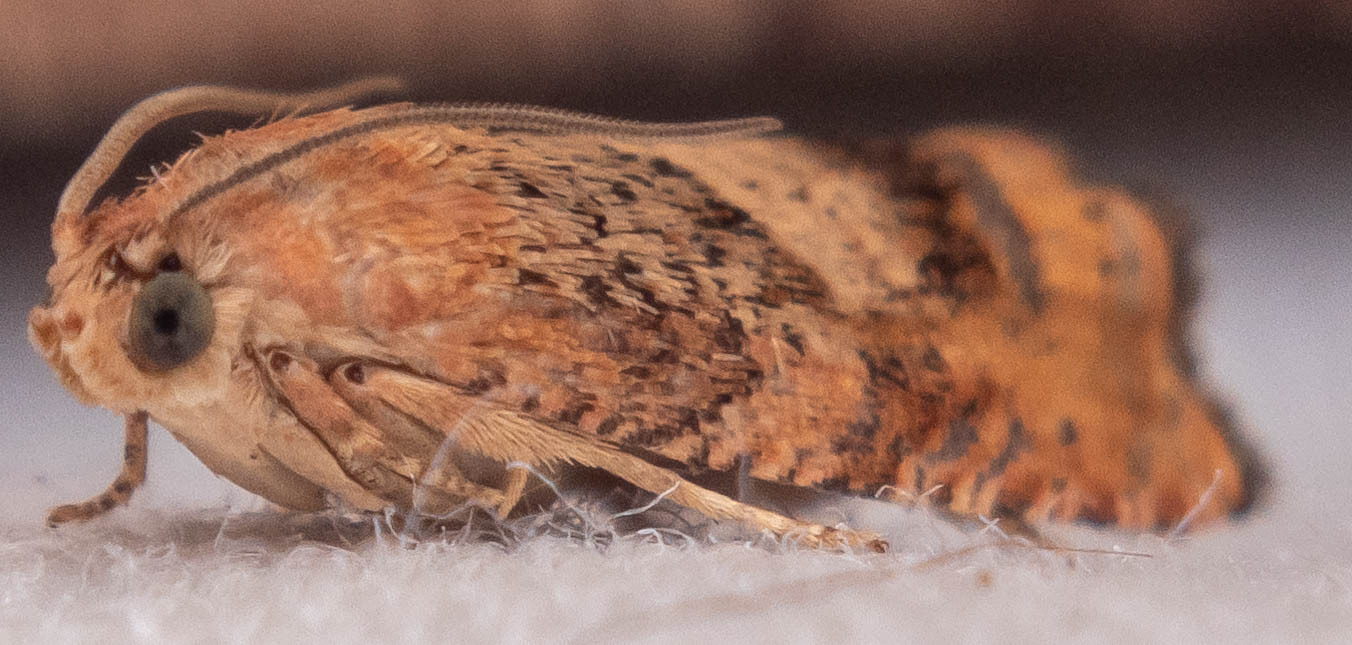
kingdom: Animalia
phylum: Arthropoda
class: Insecta
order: Lepidoptera
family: Tortricidae
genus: Cydia
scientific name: Cydia amplana
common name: Vagrant piercer
